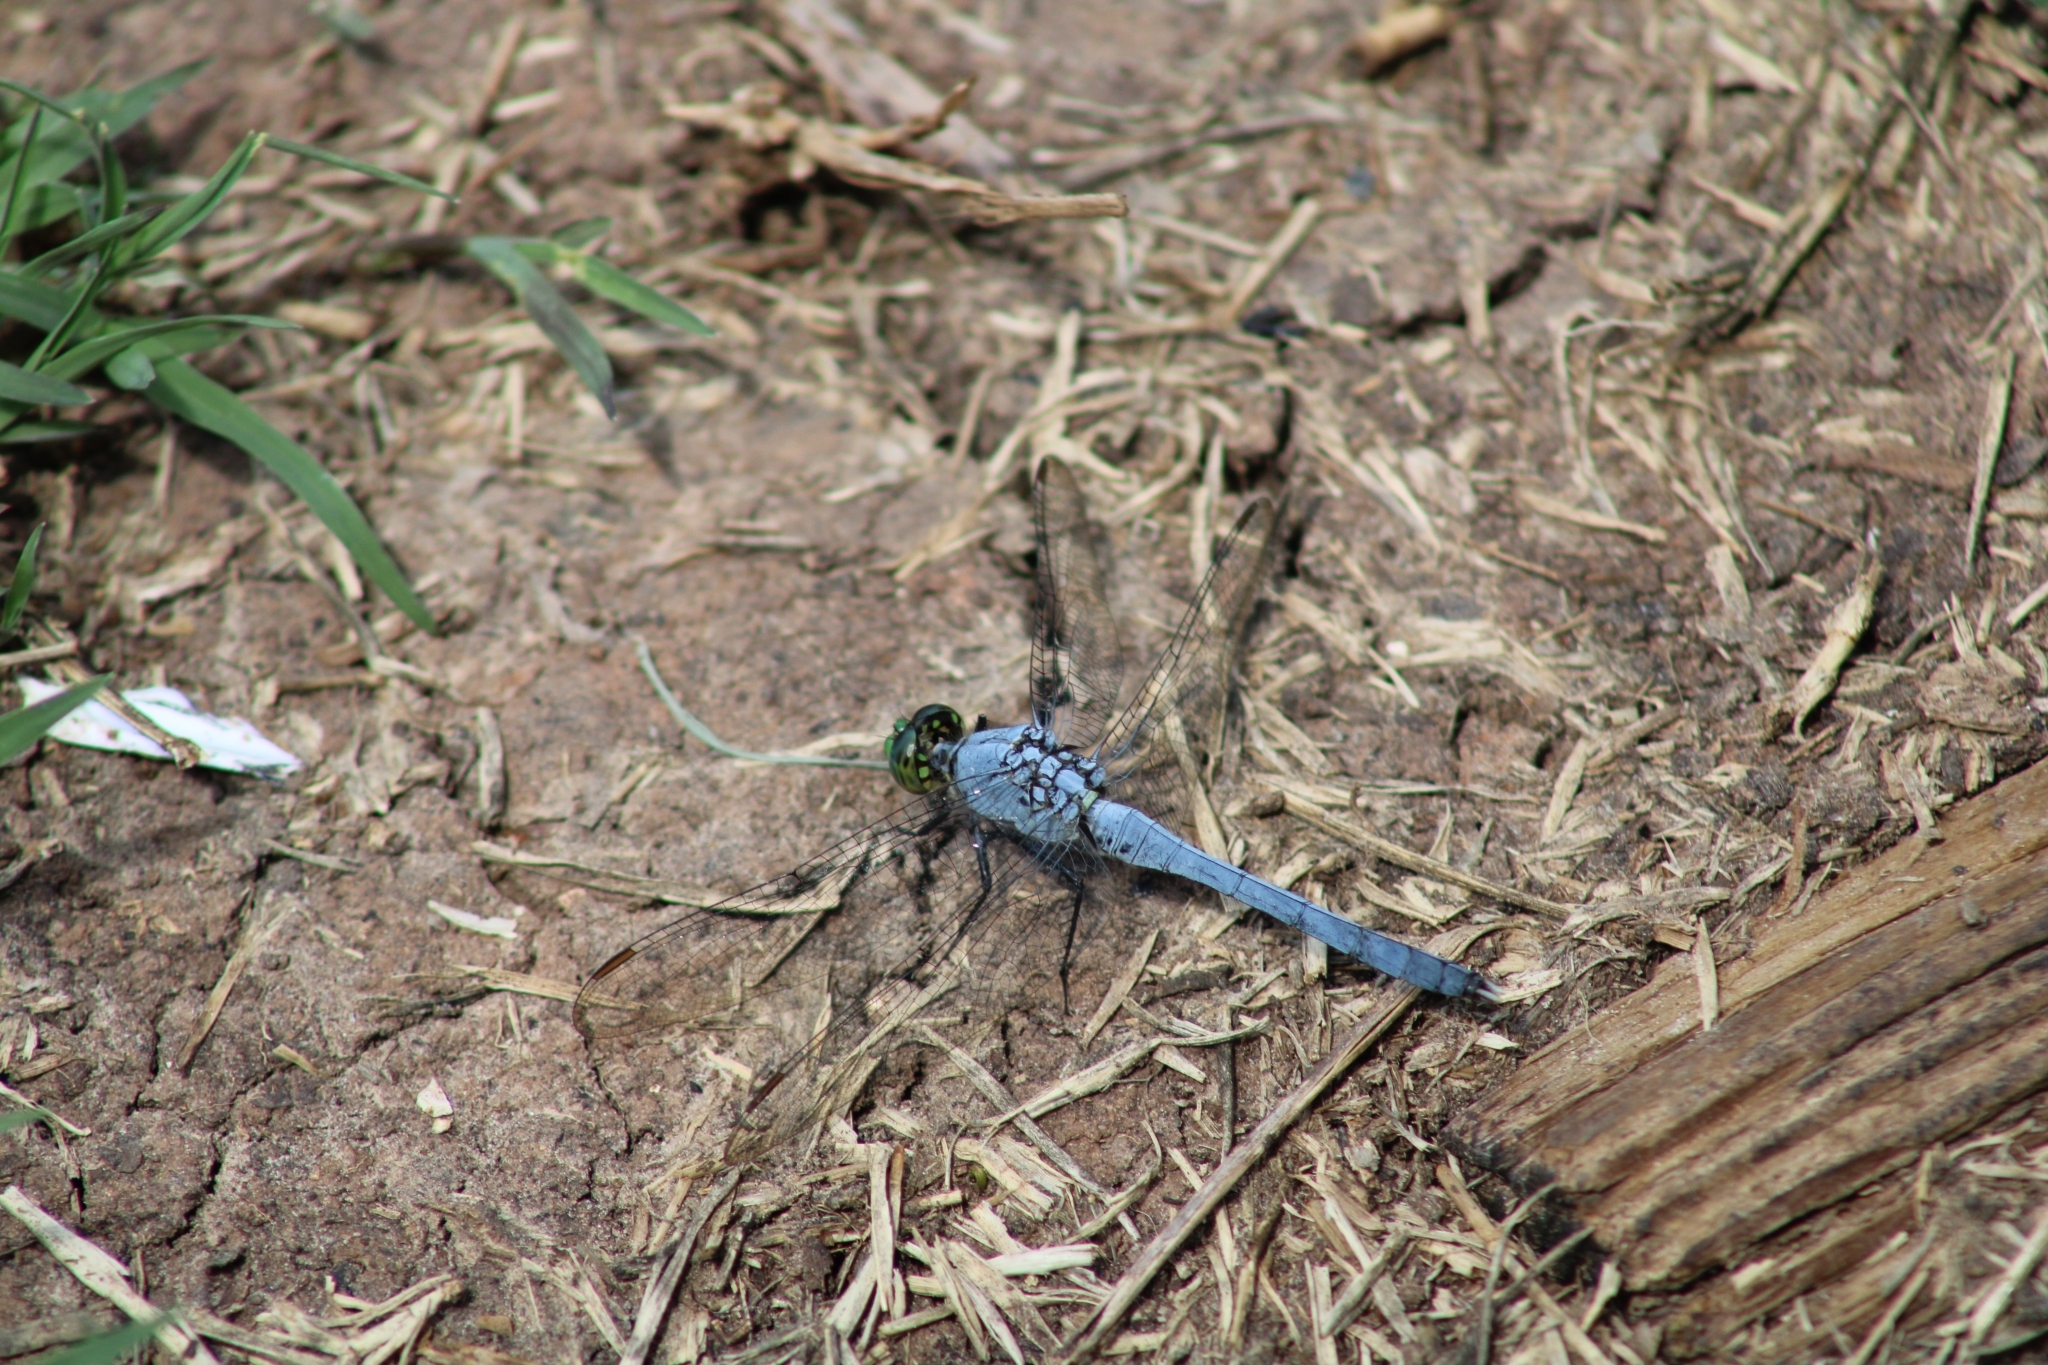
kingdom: Animalia
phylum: Arthropoda
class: Insecta
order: Odonata
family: Libellulidae
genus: Erythemis
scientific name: Erythemis simplicicollis
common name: Eastern pondhawk
